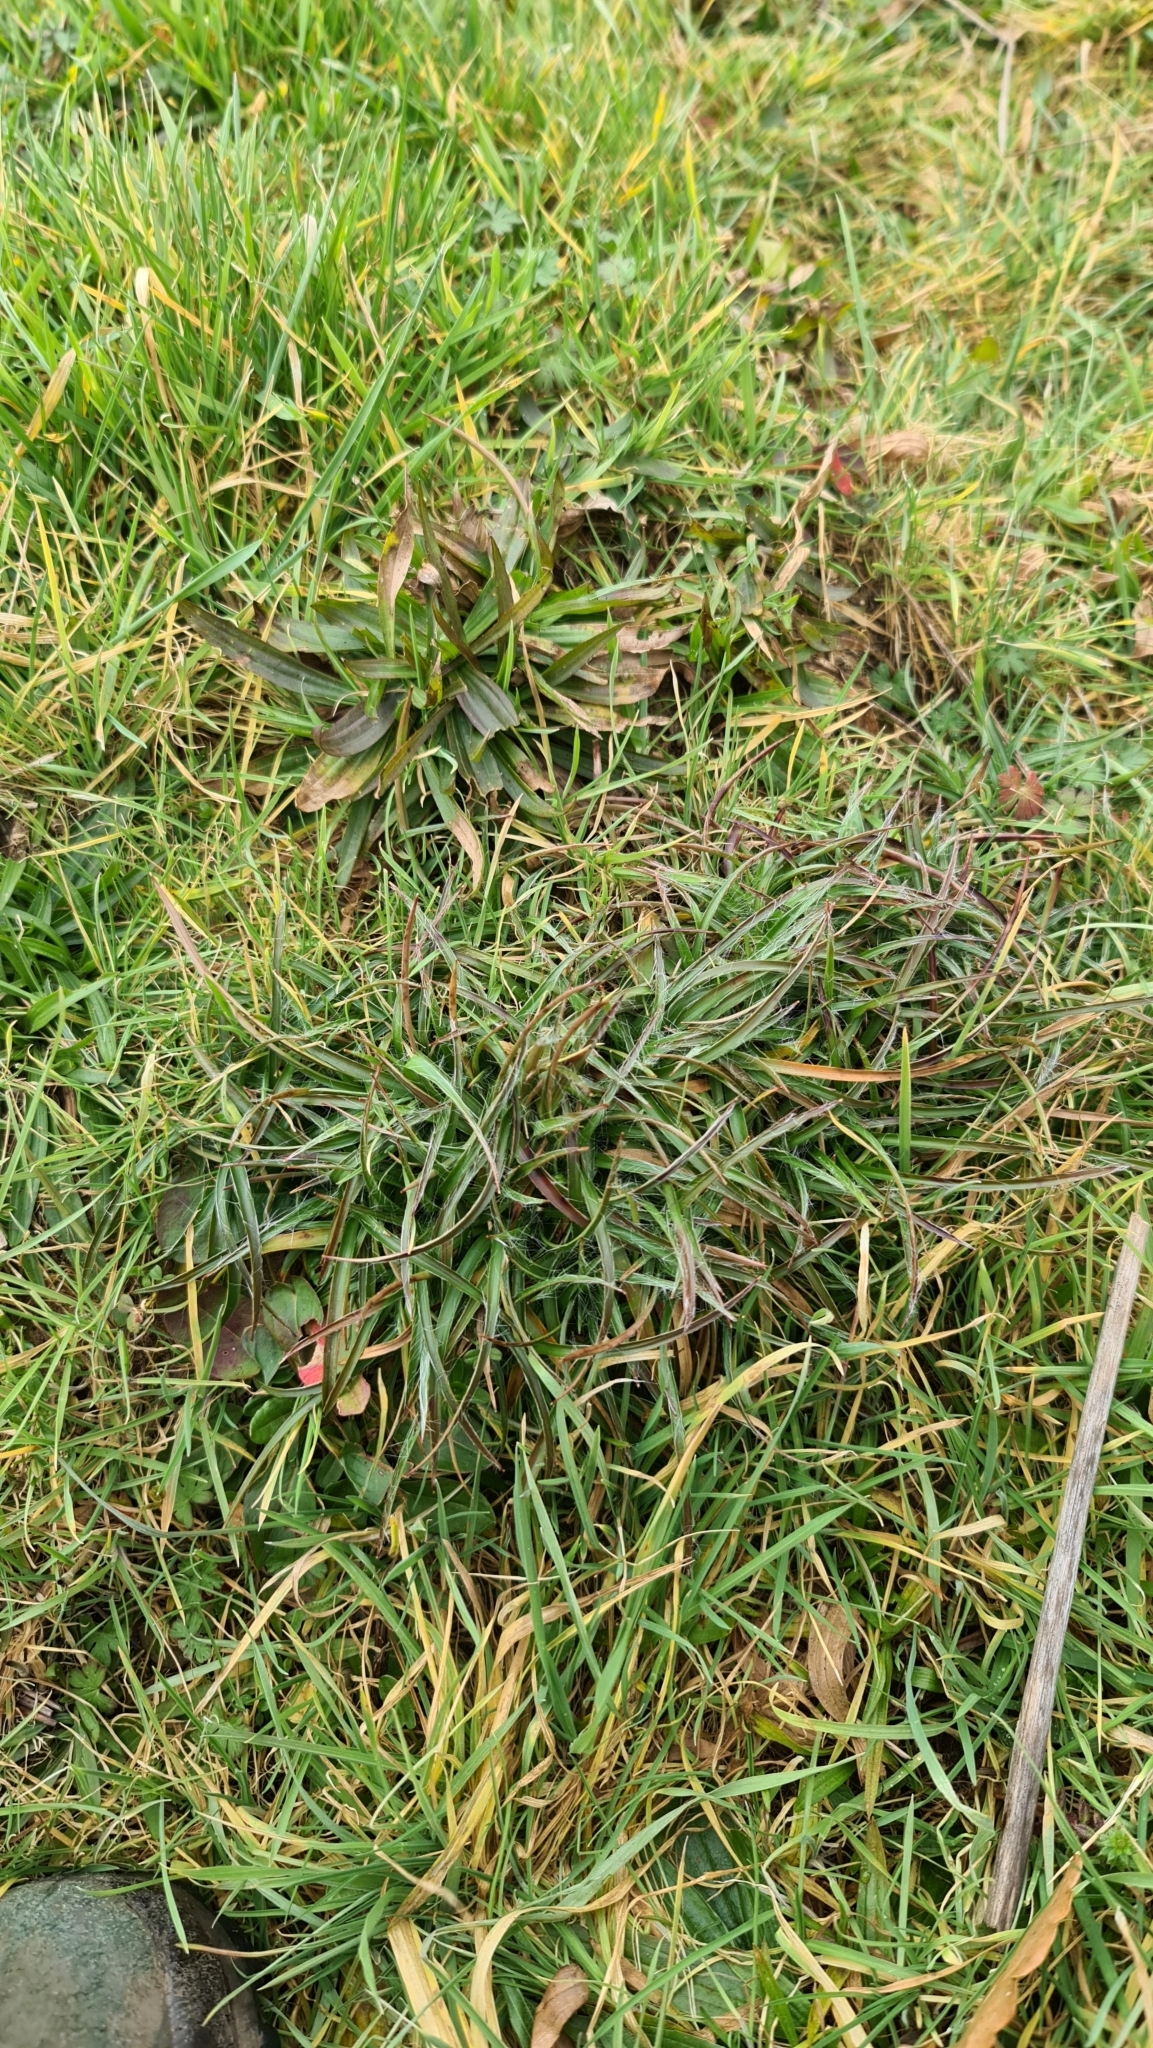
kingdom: Plantae
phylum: Tracheophyta
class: Liliopsida
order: Poales
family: Juncaceae
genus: Luzula
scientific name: Luzula campestris
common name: Field wood-rush
